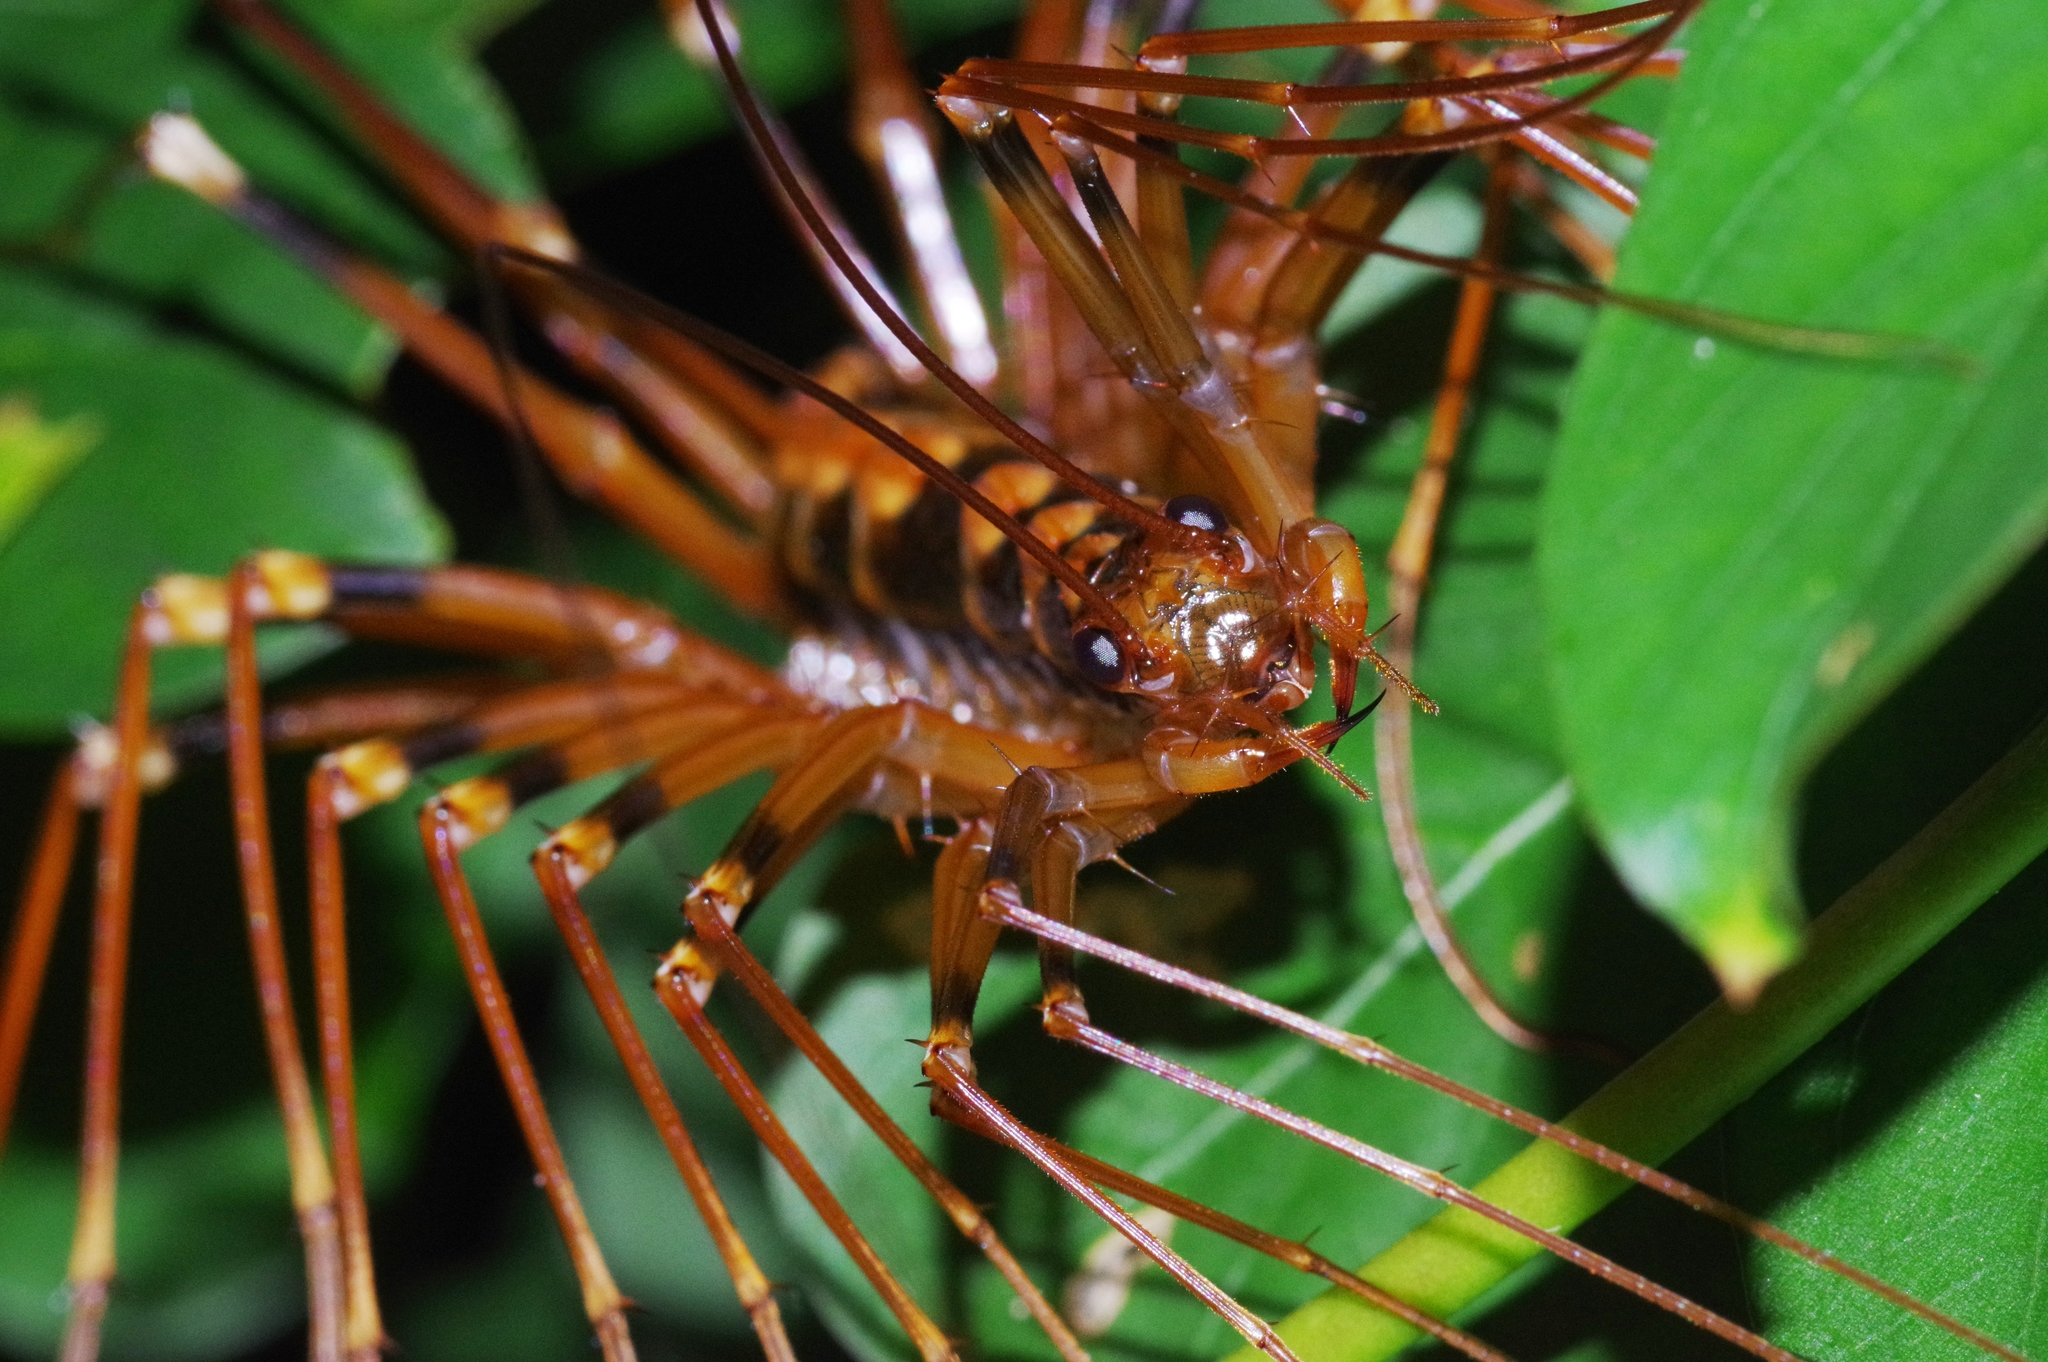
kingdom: Animalia
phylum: Arthropoda
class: Chilopoda
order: Scutigeromorpha
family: Scutigeridae
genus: Thereuopoda
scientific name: Thereuopoda clunifera
